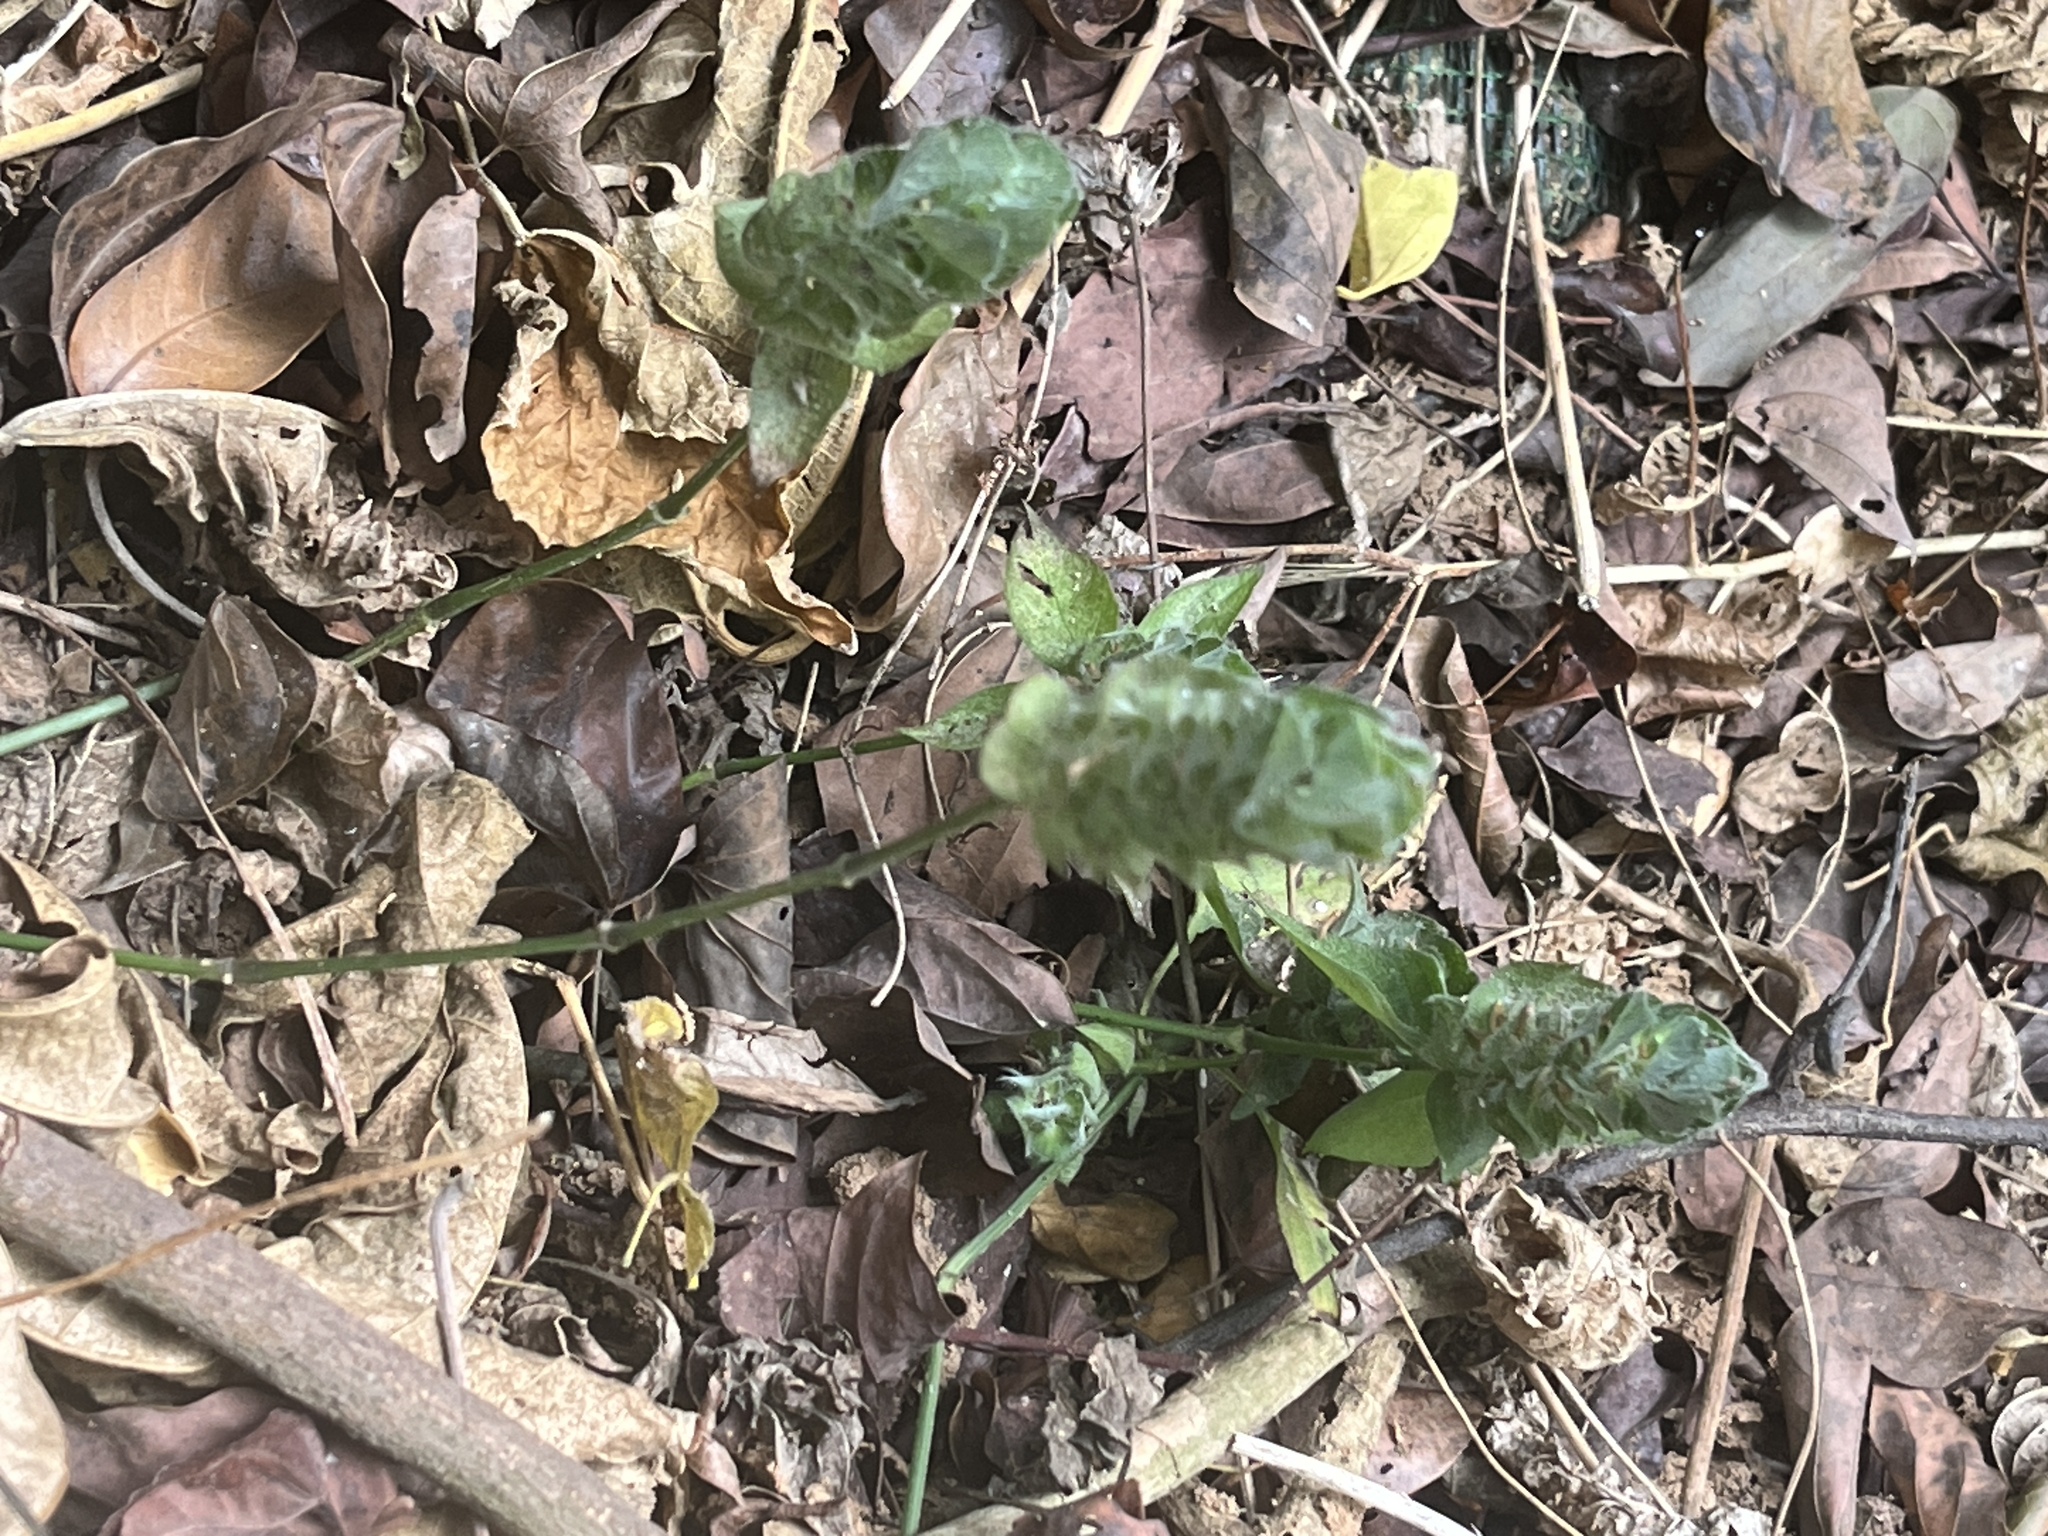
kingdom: Plantae
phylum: Tracheophyta
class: Magnoliopsida
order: Lamiales
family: Acanthaceae
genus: Ruellia
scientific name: Ruellia blechum
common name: Browne's blechum
